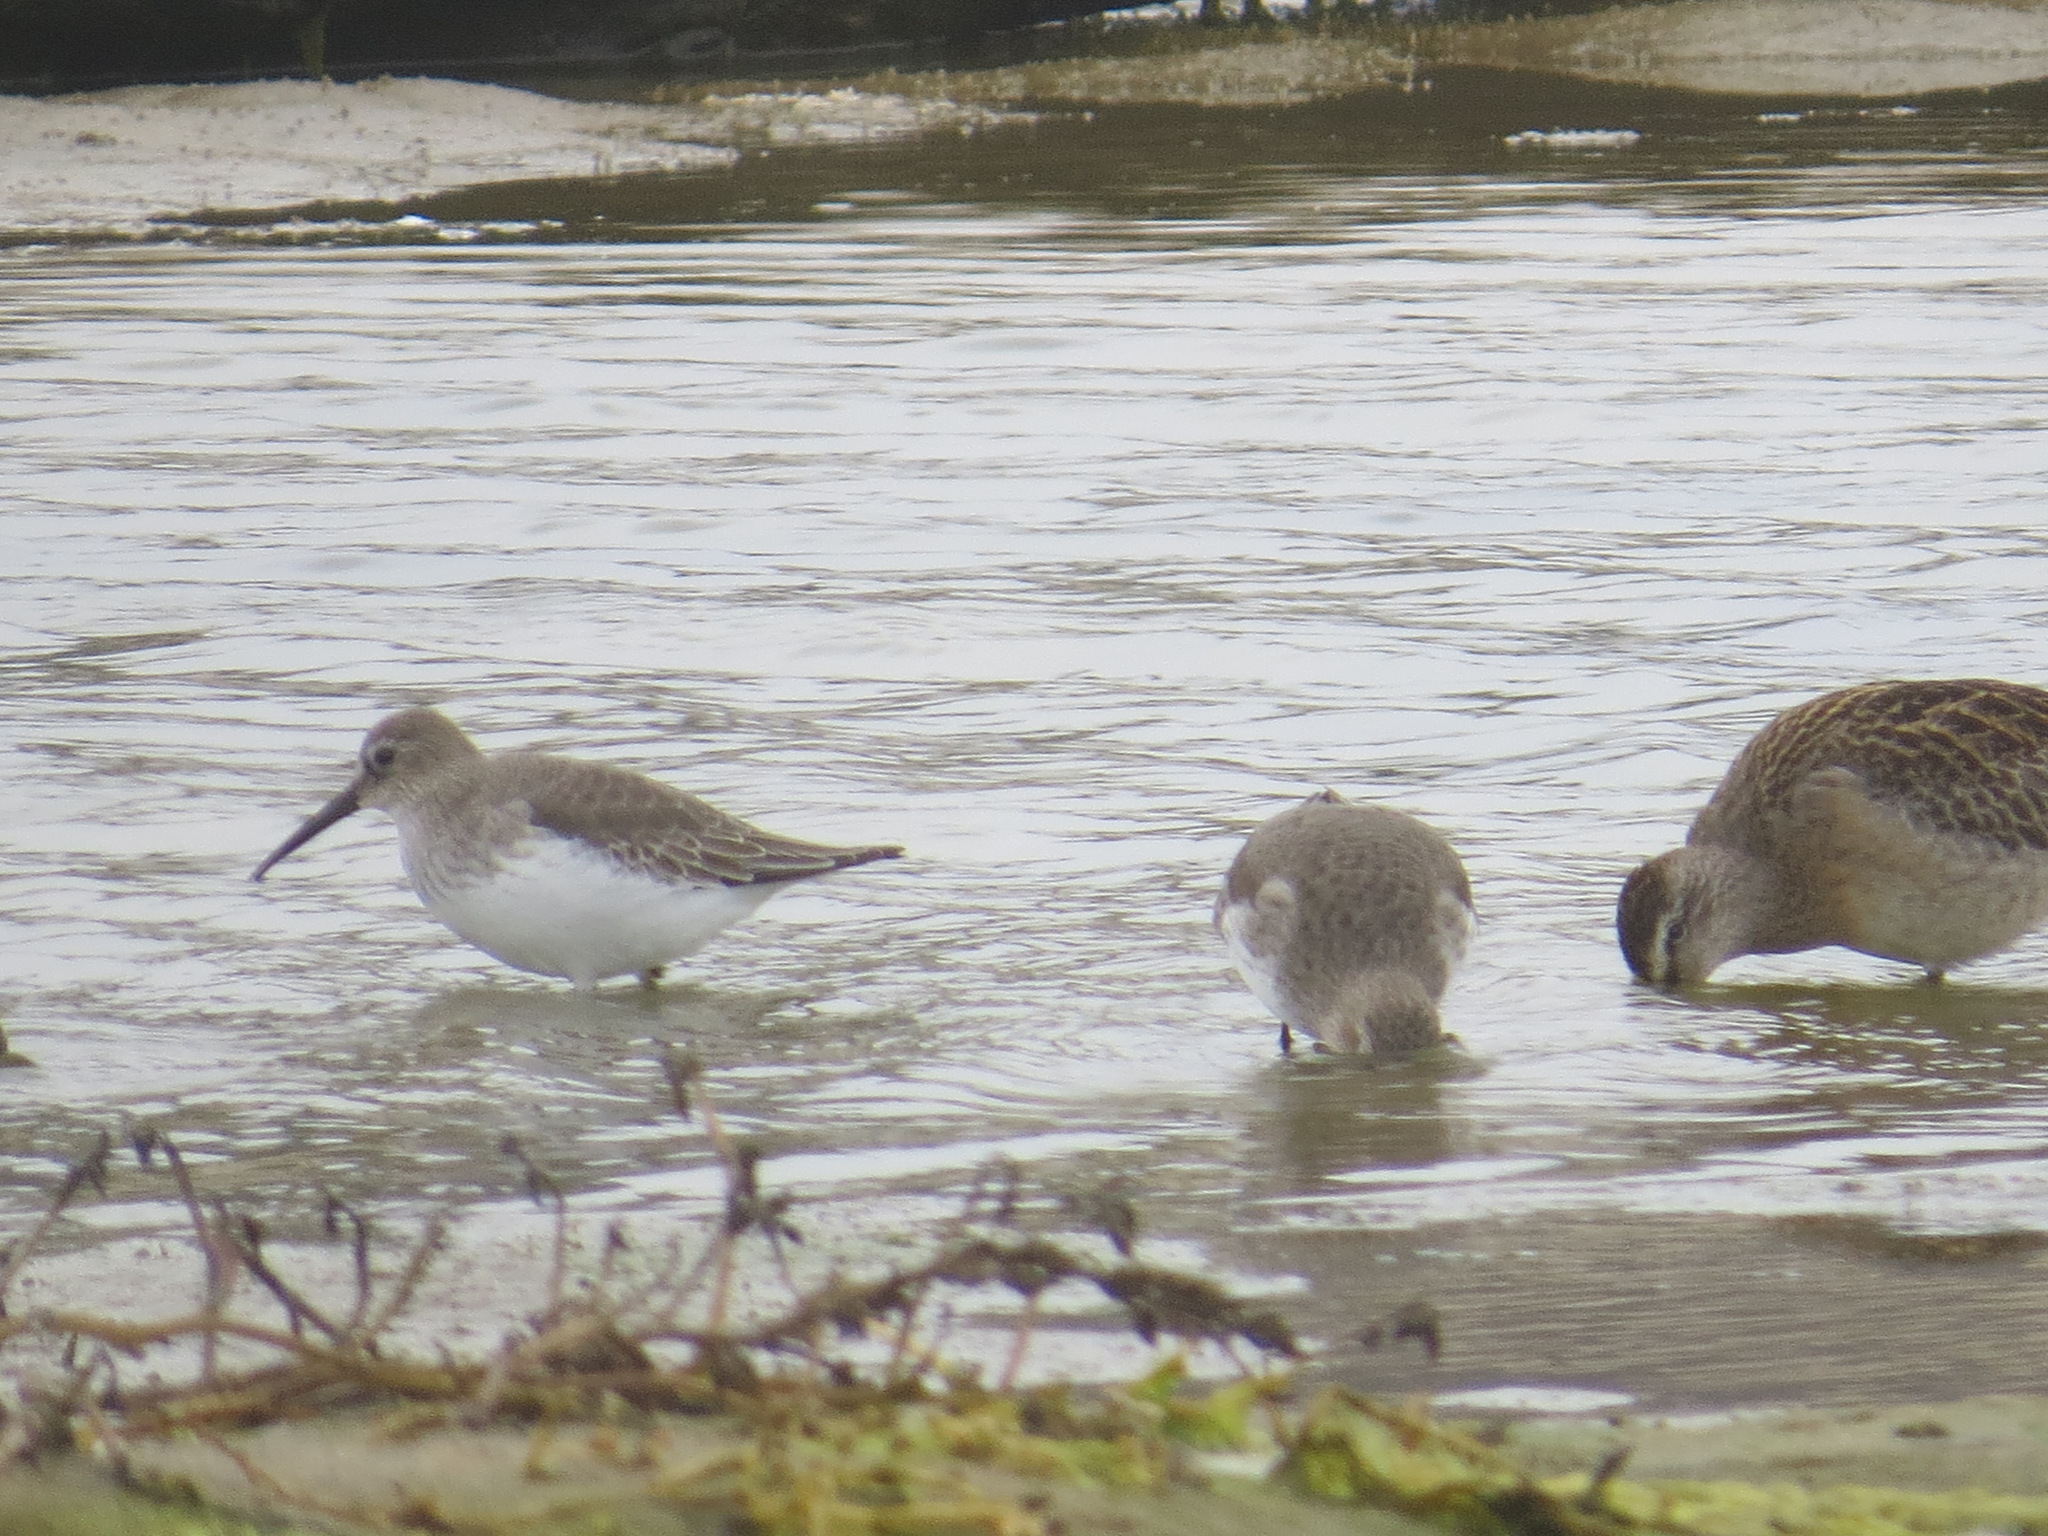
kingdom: Animalia
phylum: Chordata
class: Aves
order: Charadriiformes
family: Scolopacidae
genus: Calidris
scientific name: Calidris alpina
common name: Dunlin
